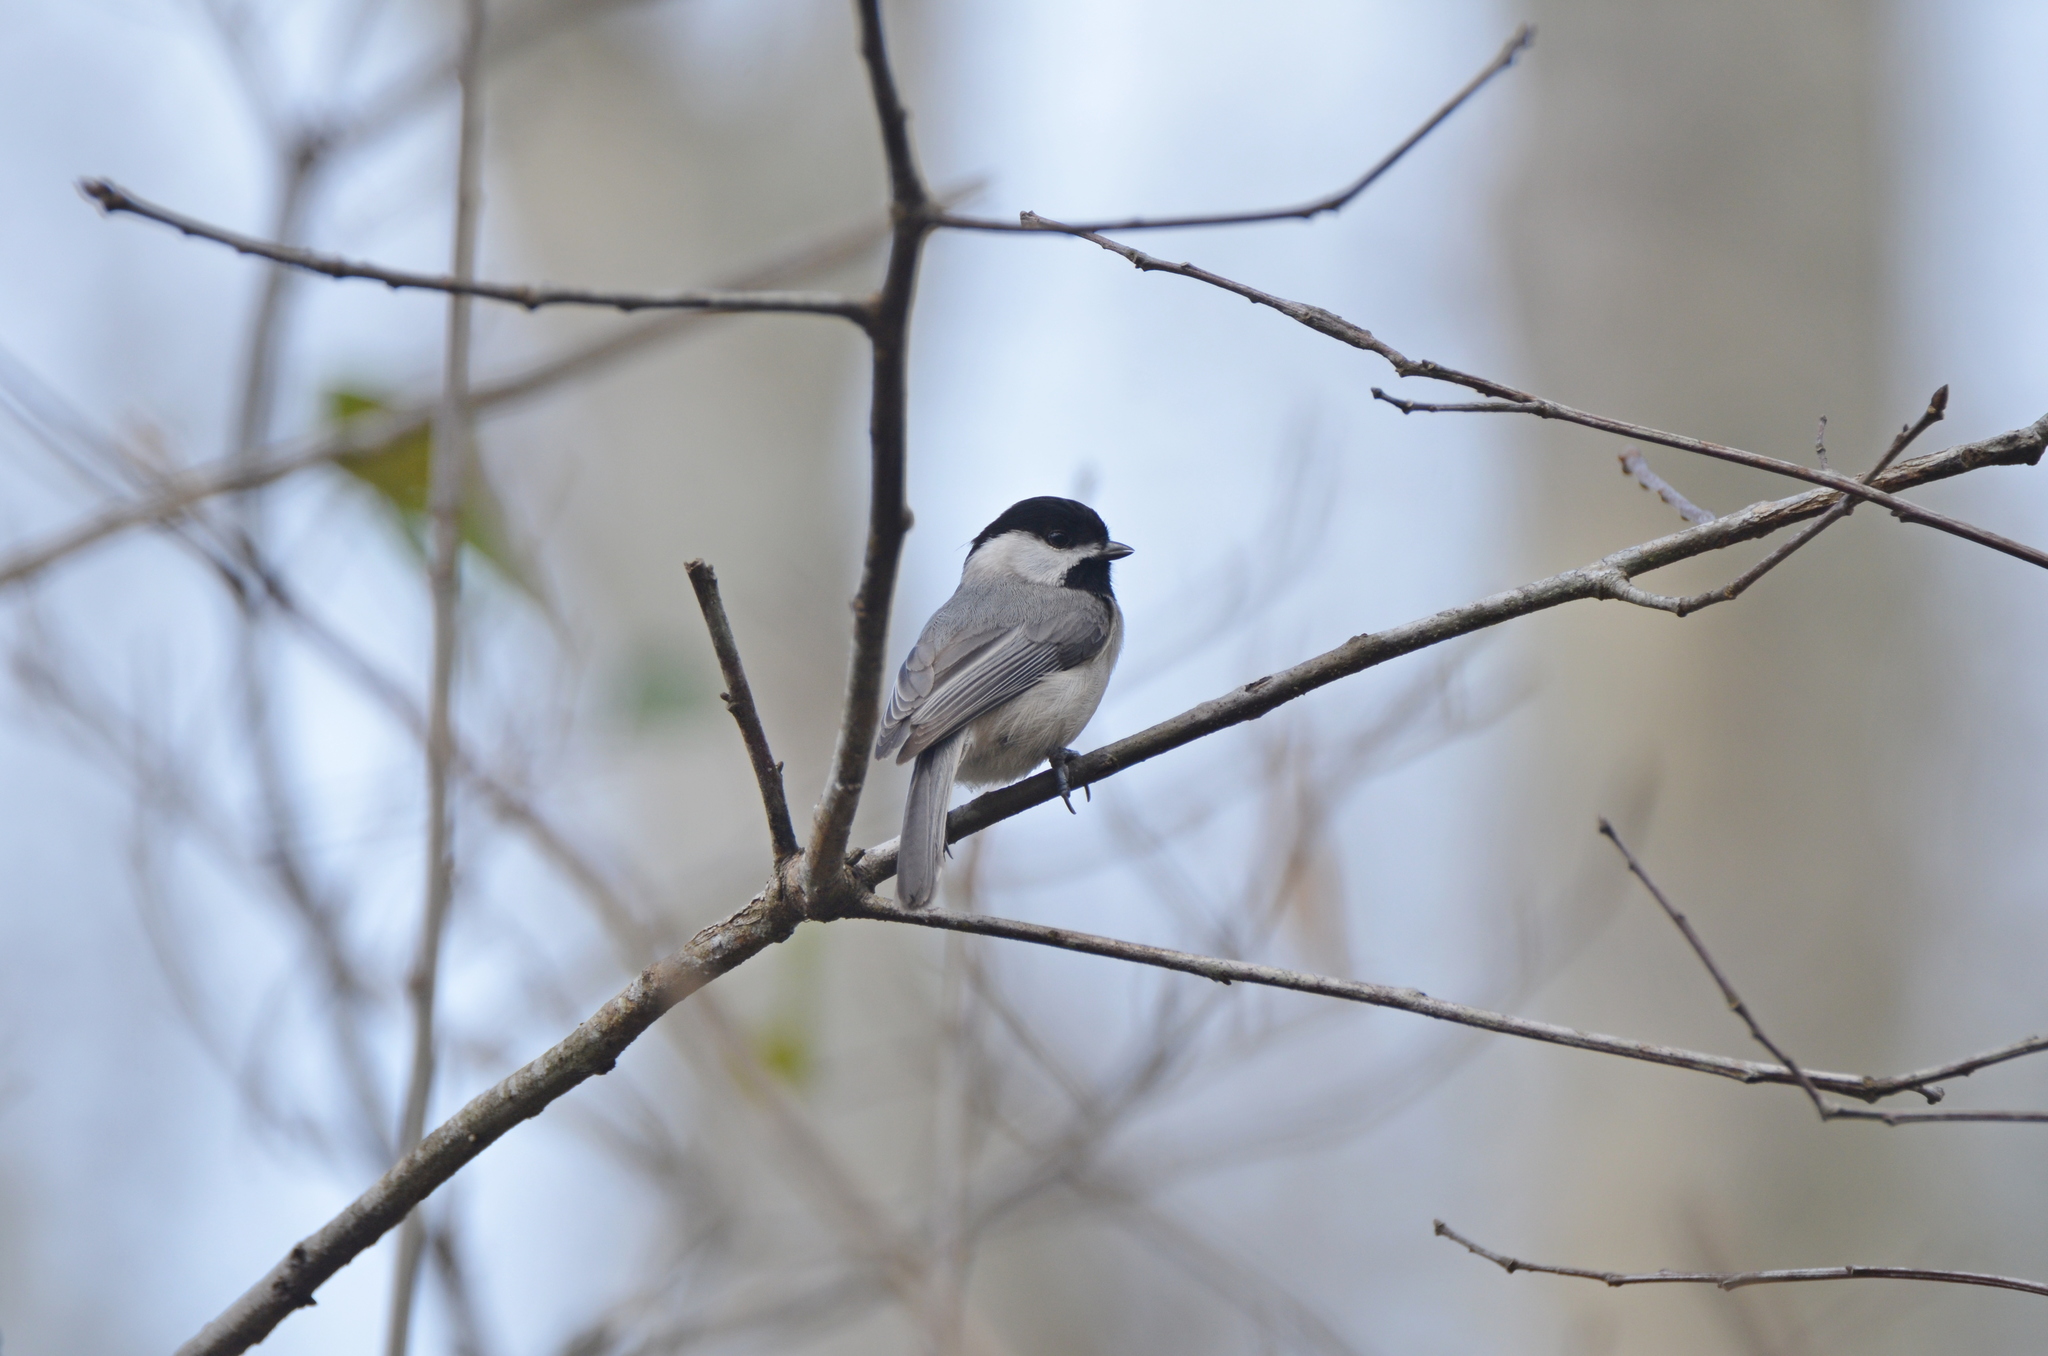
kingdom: Animalia
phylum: Chordata
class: Aves
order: Passeriformes
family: Paridae
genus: Poecile
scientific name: Poecile carolinensis
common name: Carolina chickadee
